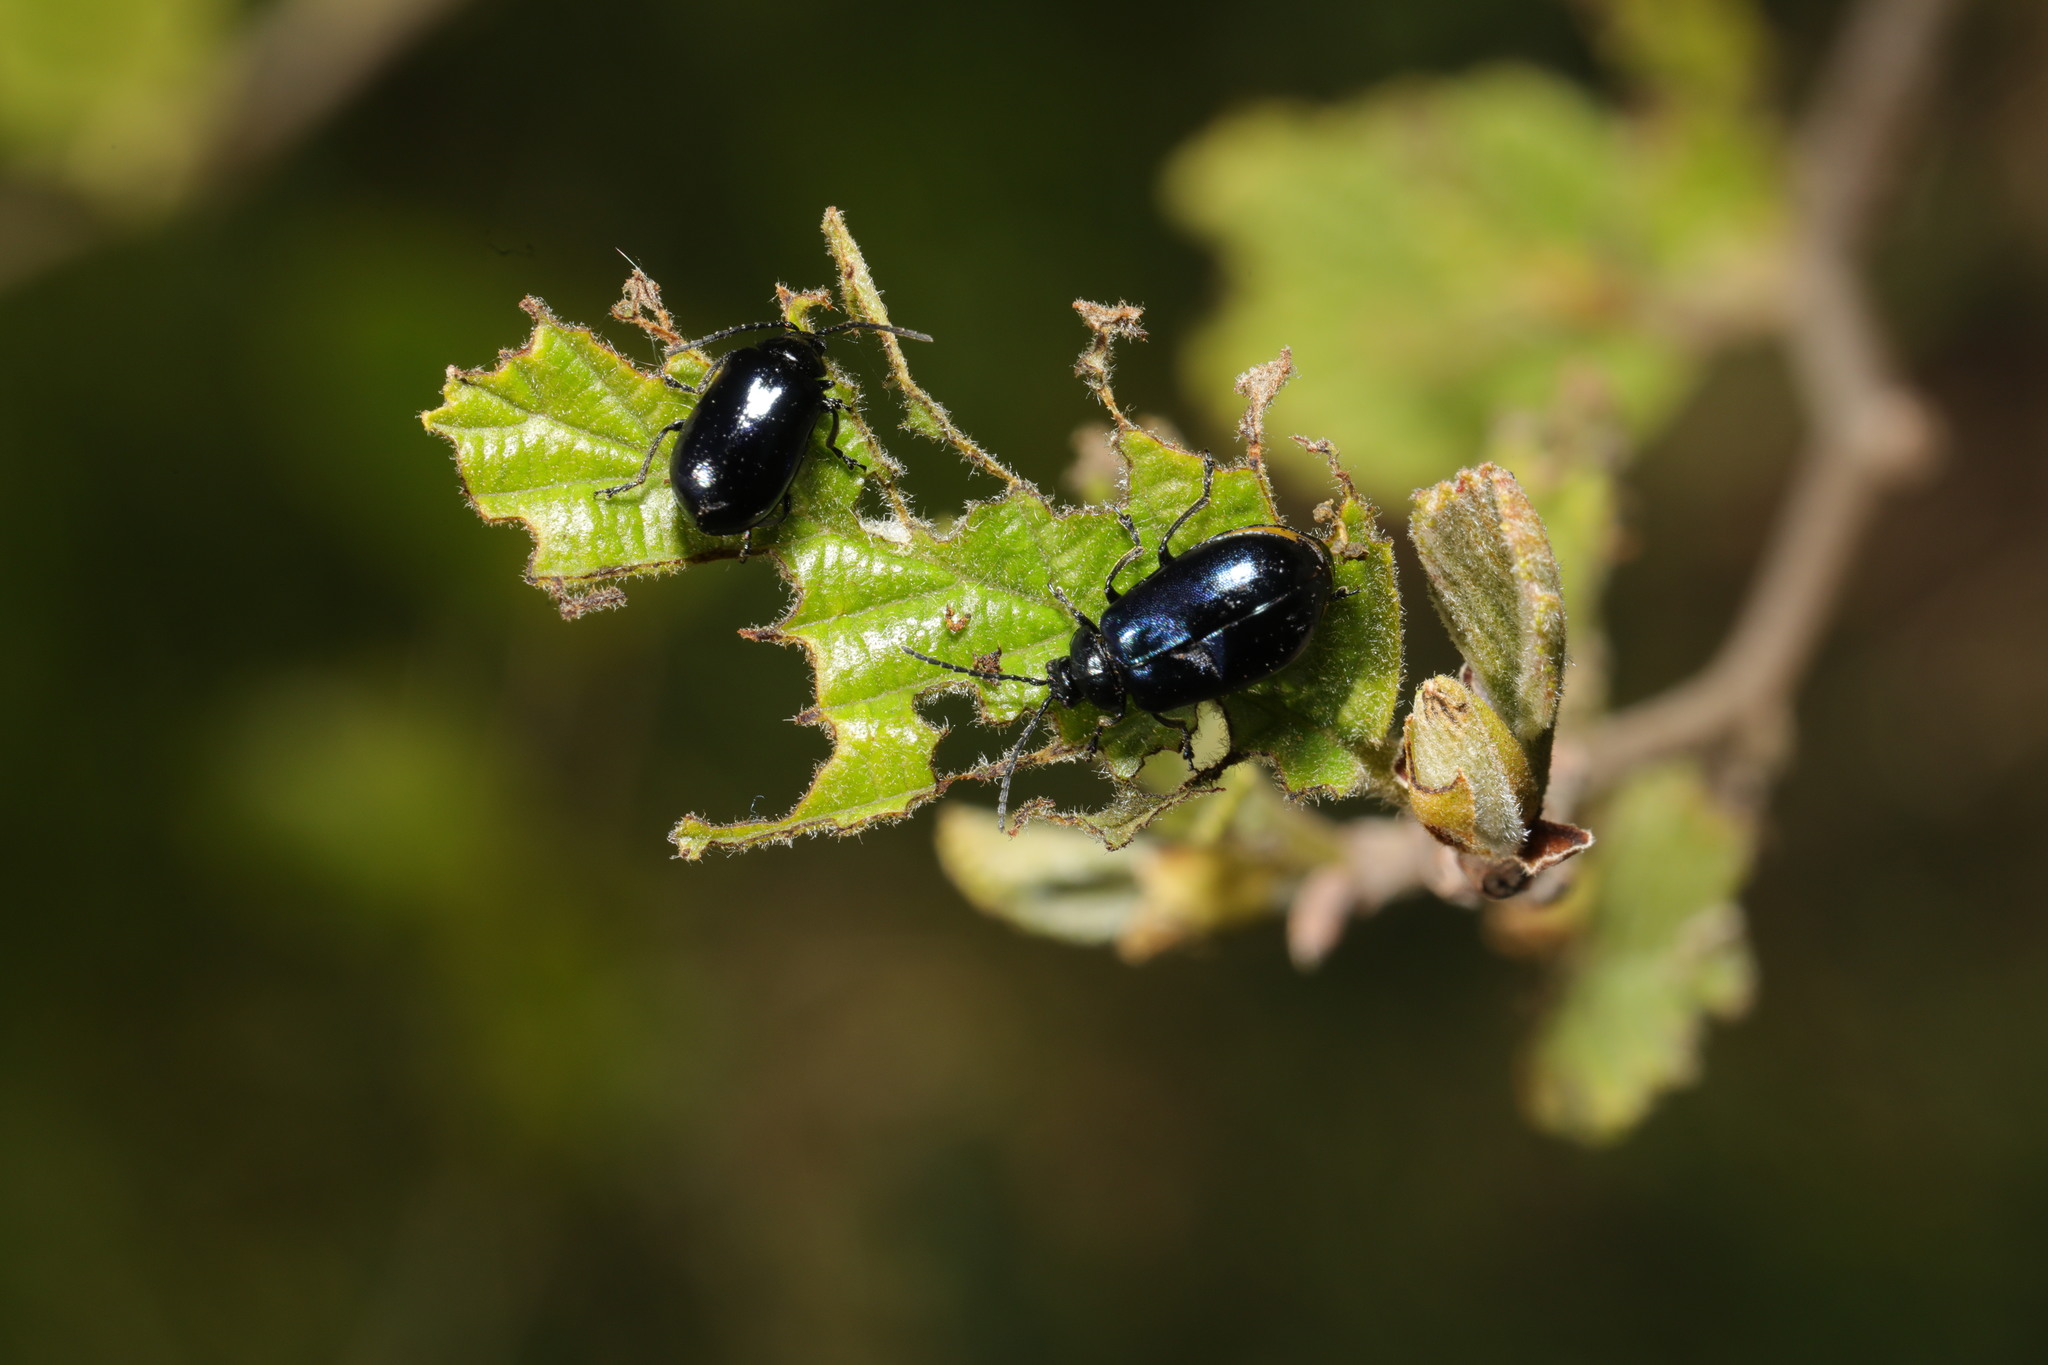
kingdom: Animalia
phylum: Arthropoda
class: Insecta
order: Coleoptera
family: Chrysomelidae
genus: Agelastica
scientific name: Agelastica alni
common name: Alder leaf beetle
